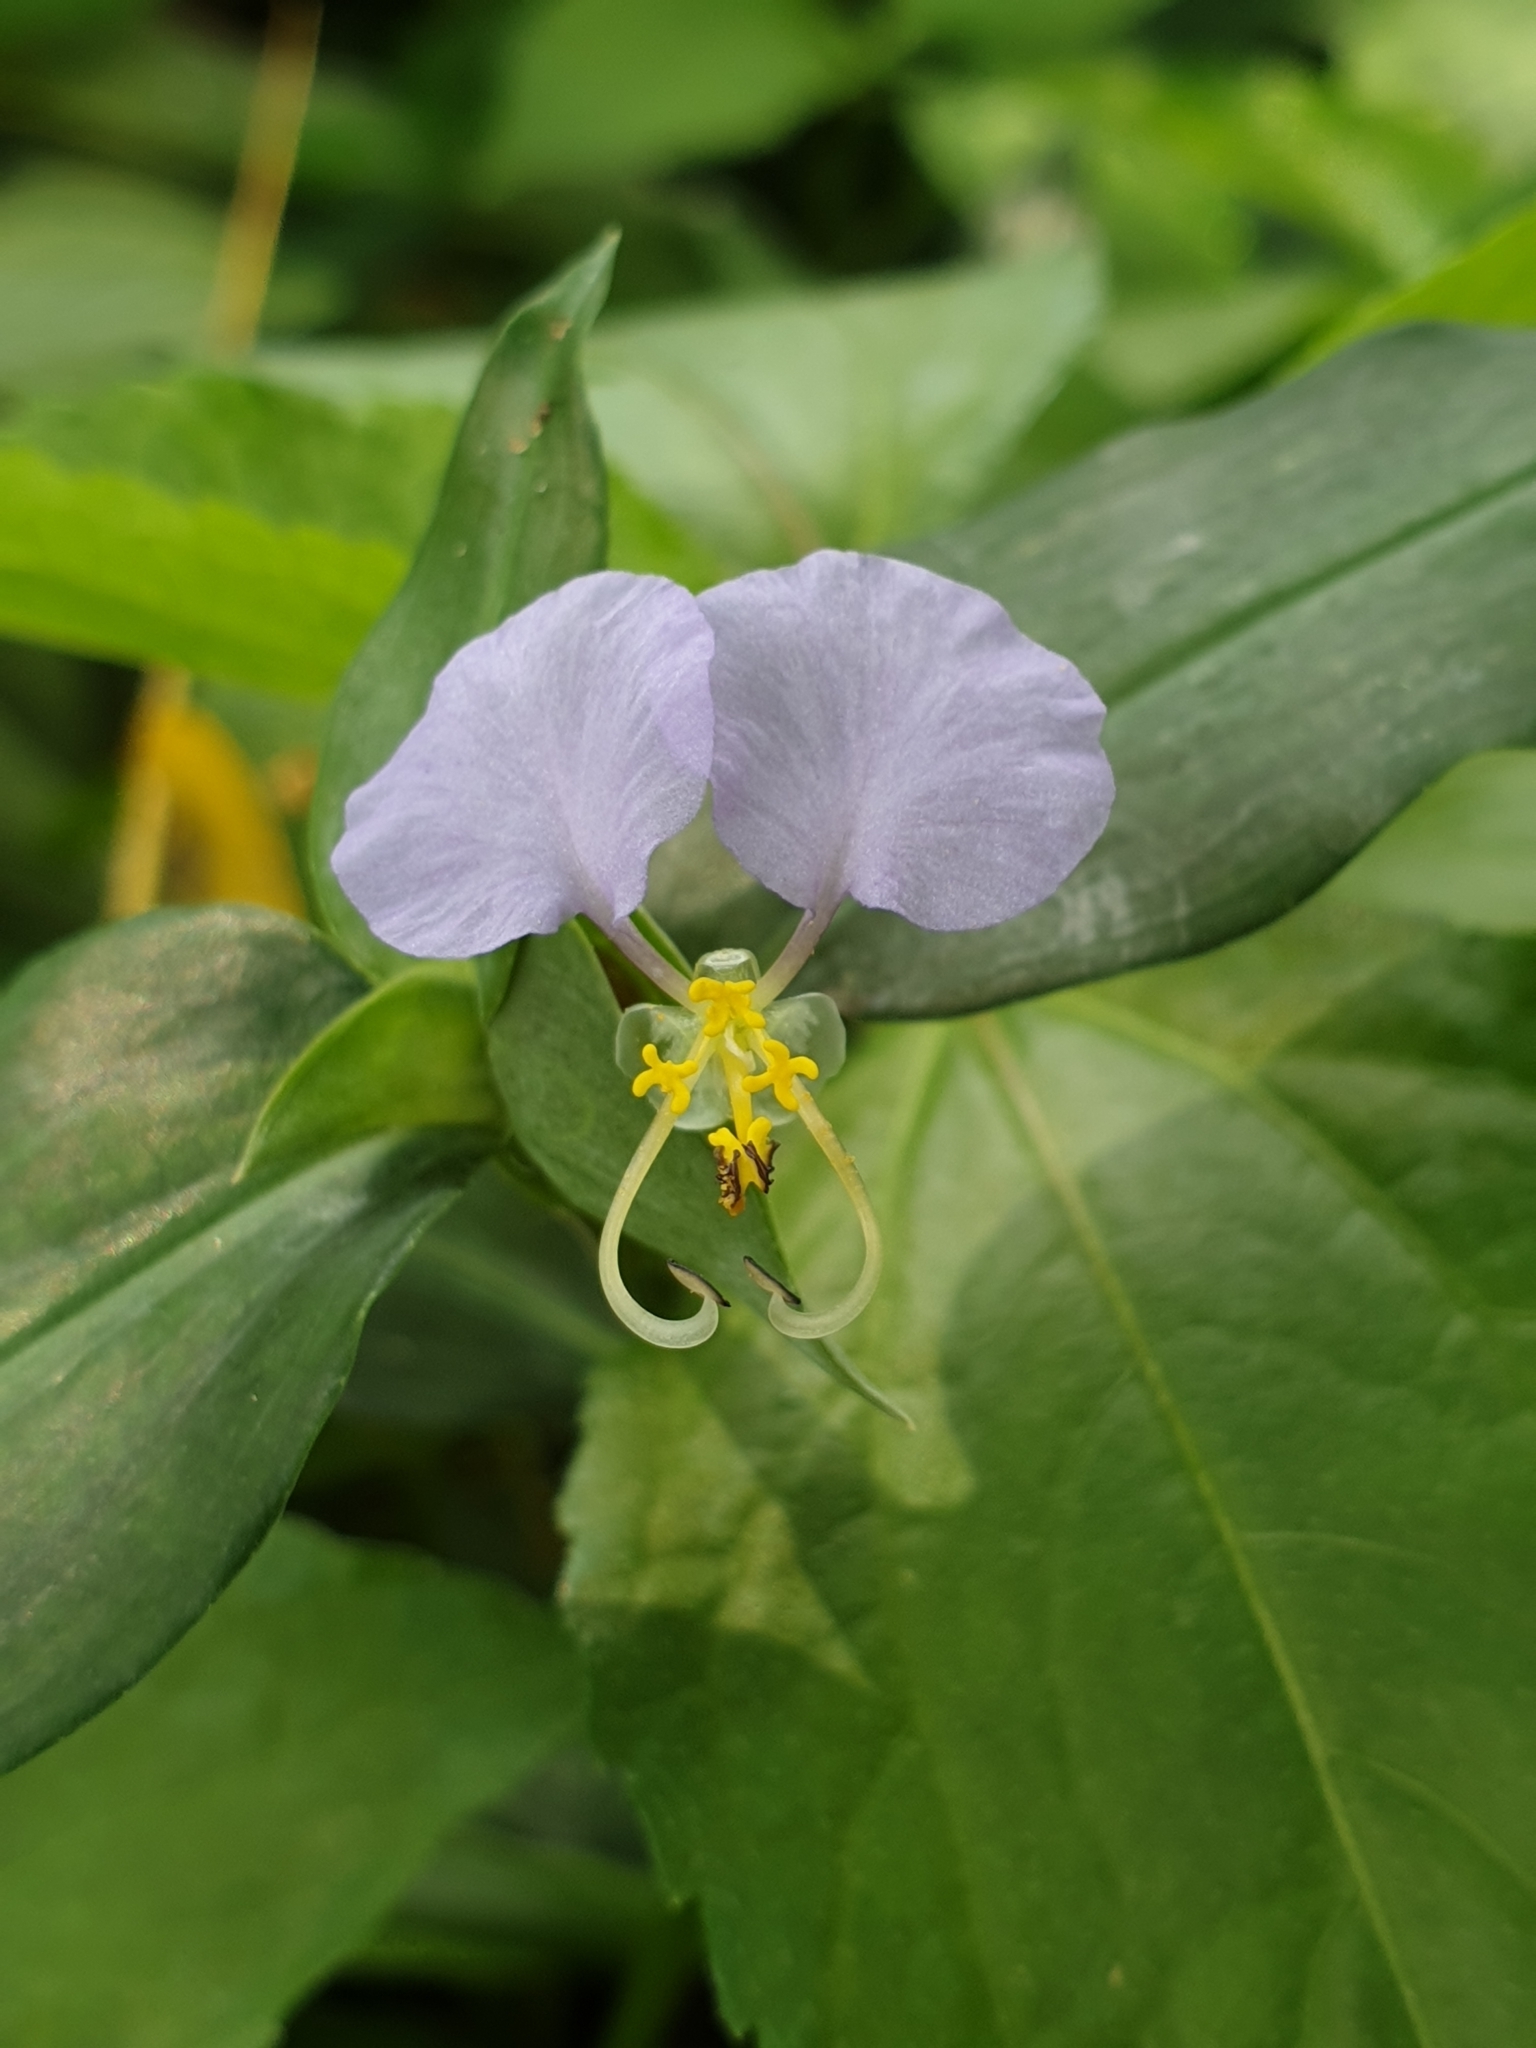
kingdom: Plantae
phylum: Tracheophyta
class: Liliopsida
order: Commelinales
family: Commelinaceae
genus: Commelina
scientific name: Commelina undulata
